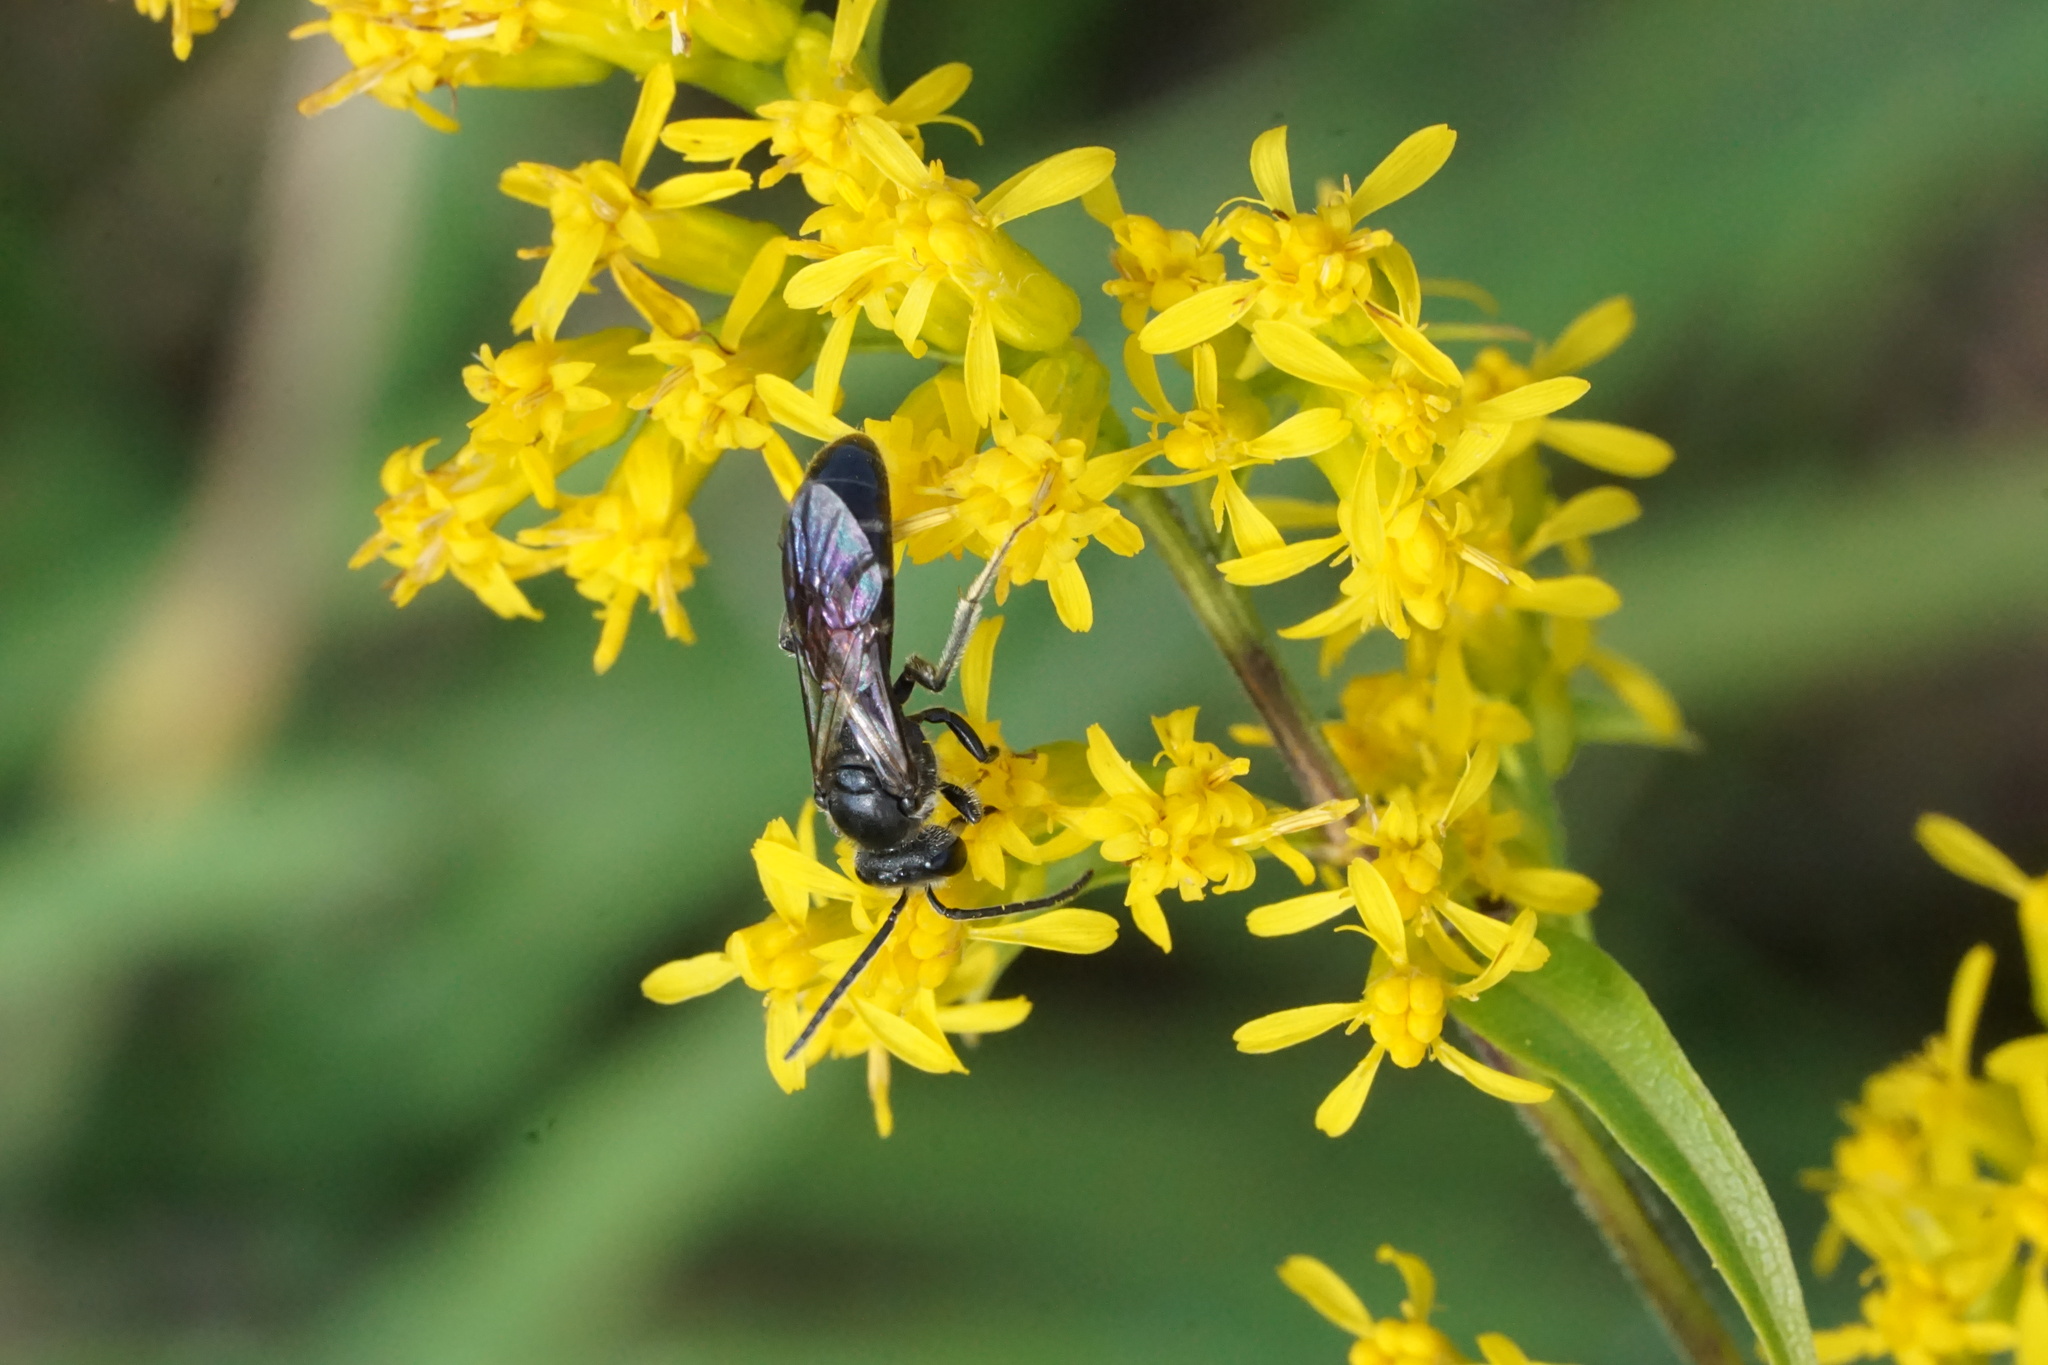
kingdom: Animalia
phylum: Arthropoda
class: Insecta
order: Hymenoptera
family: Halictidae
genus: Lasioglossum
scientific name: Lasioglossum fuscipenne
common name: Brown-winged sweat bee
